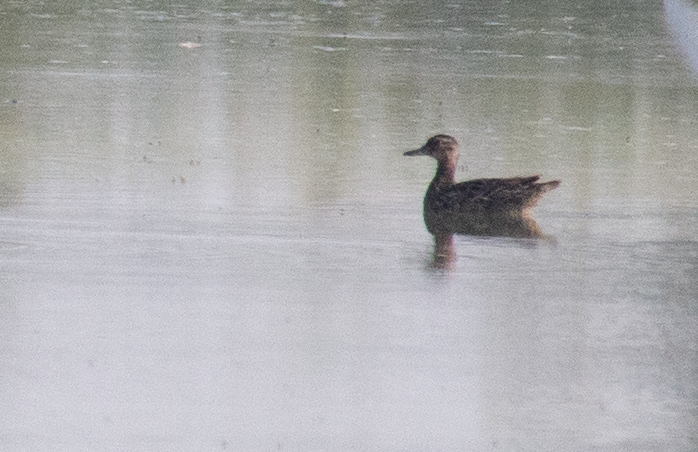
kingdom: Animalia
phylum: Chordata
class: Aves
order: Anseriformes
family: Anatidae
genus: Spatula
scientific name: Spatula querquedula
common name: Garganey
